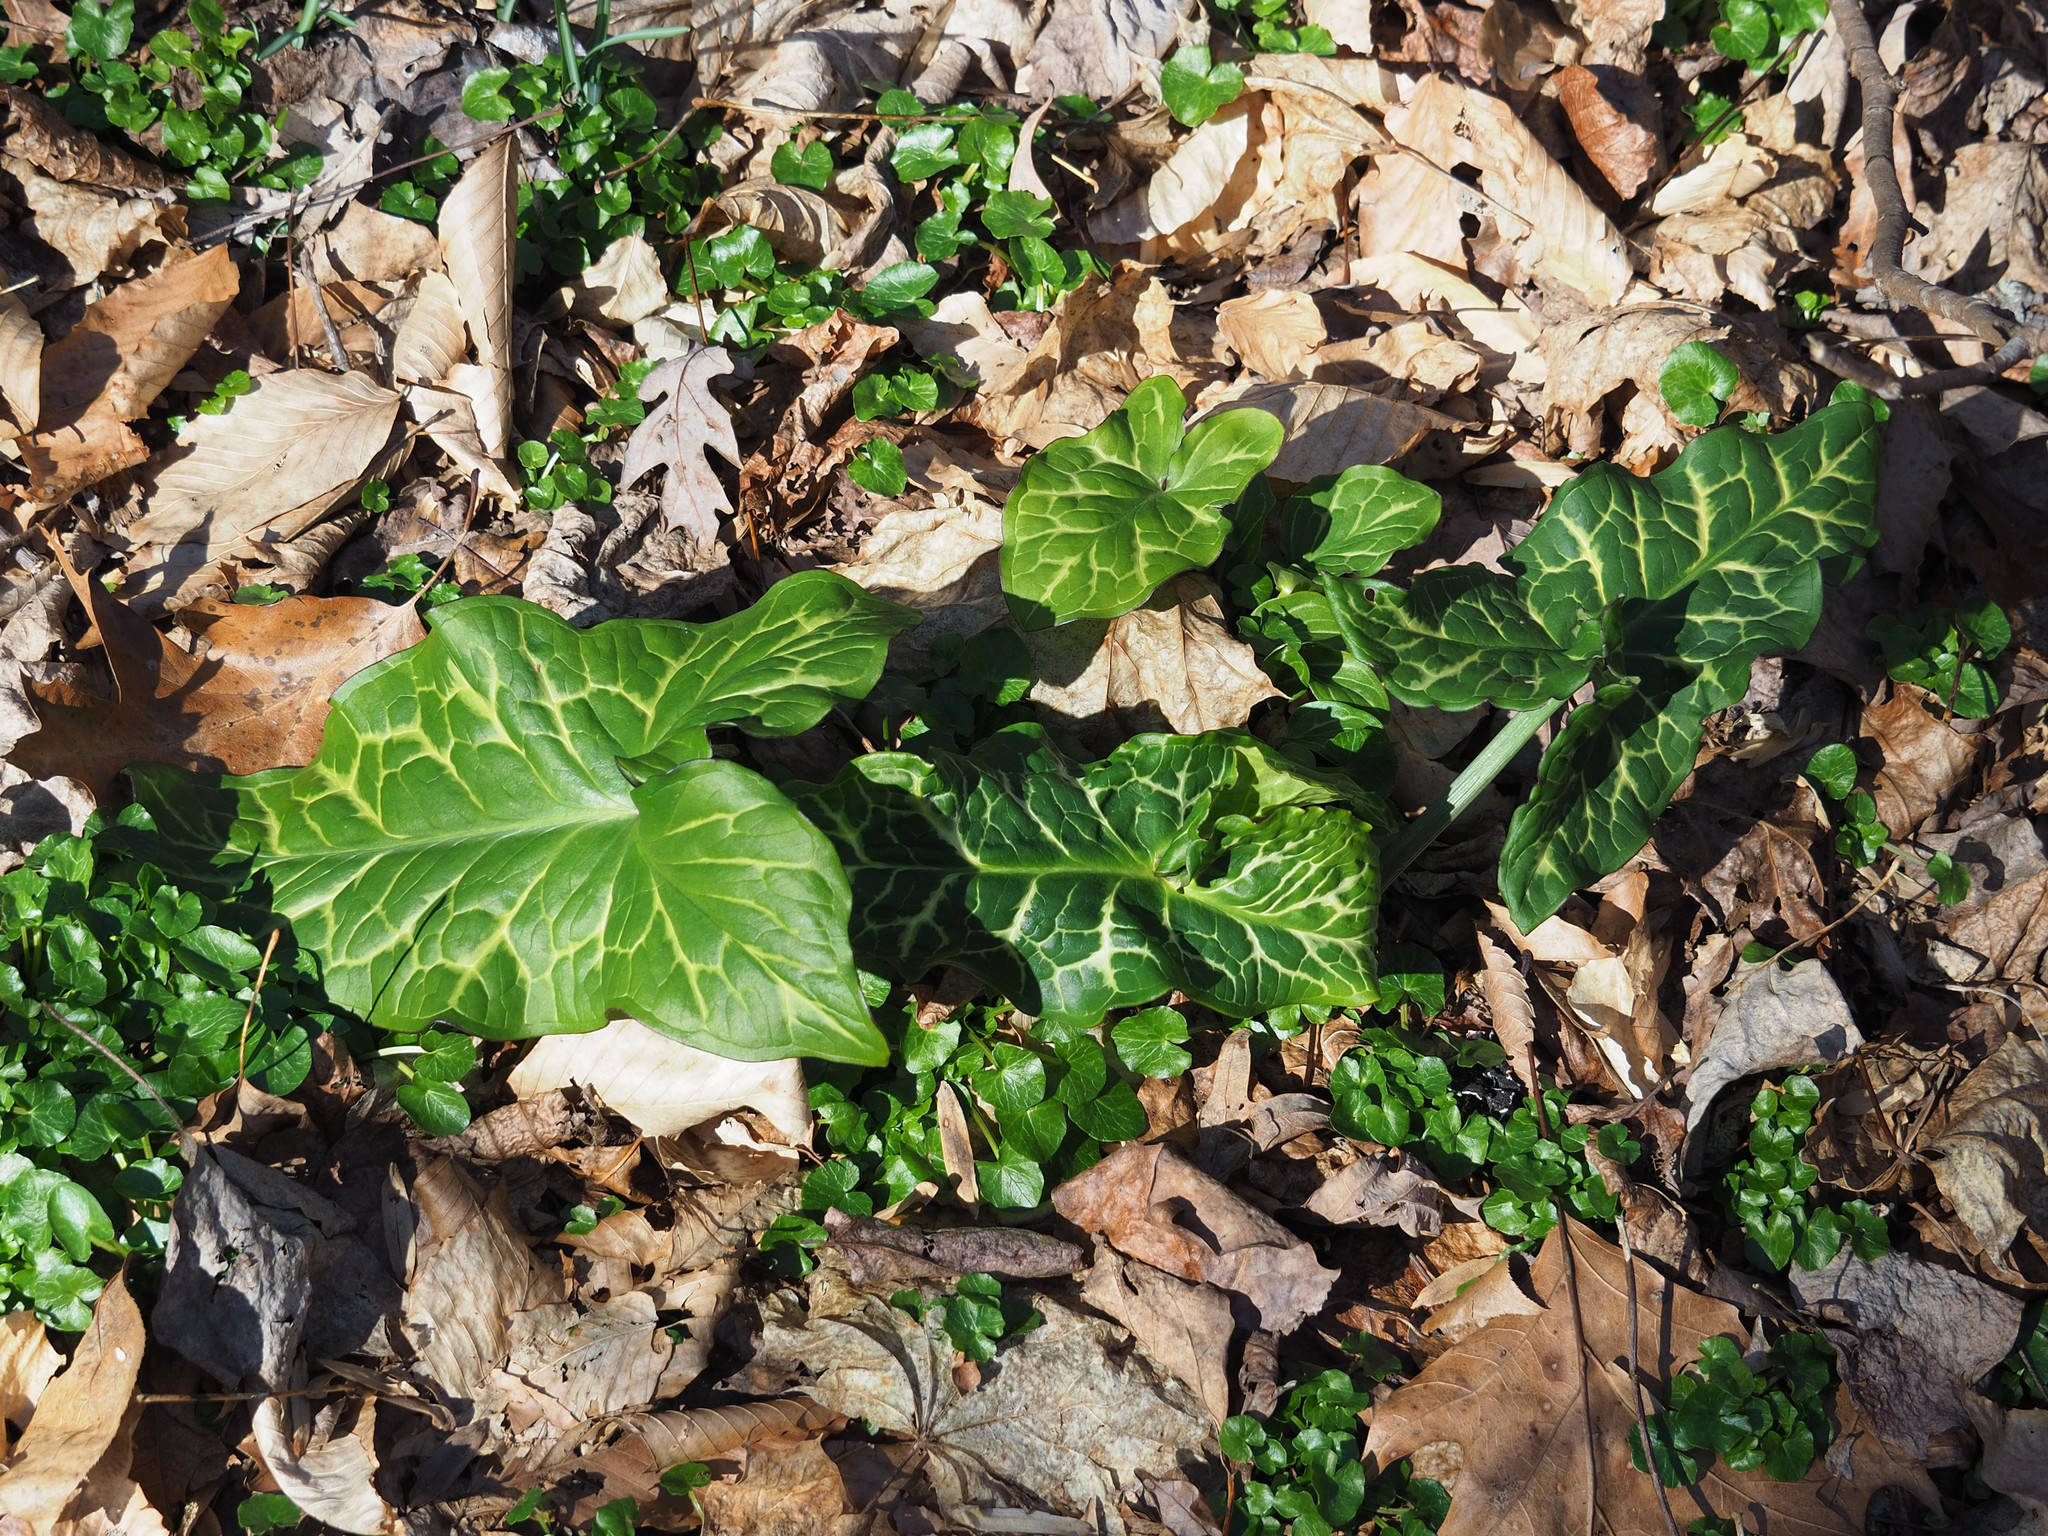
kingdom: Plantae
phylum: Tracheophyta
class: Liliopsida
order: Alismatales
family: Araceae
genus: Arum
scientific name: Arum italicum
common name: Italian lords-and-ladies
